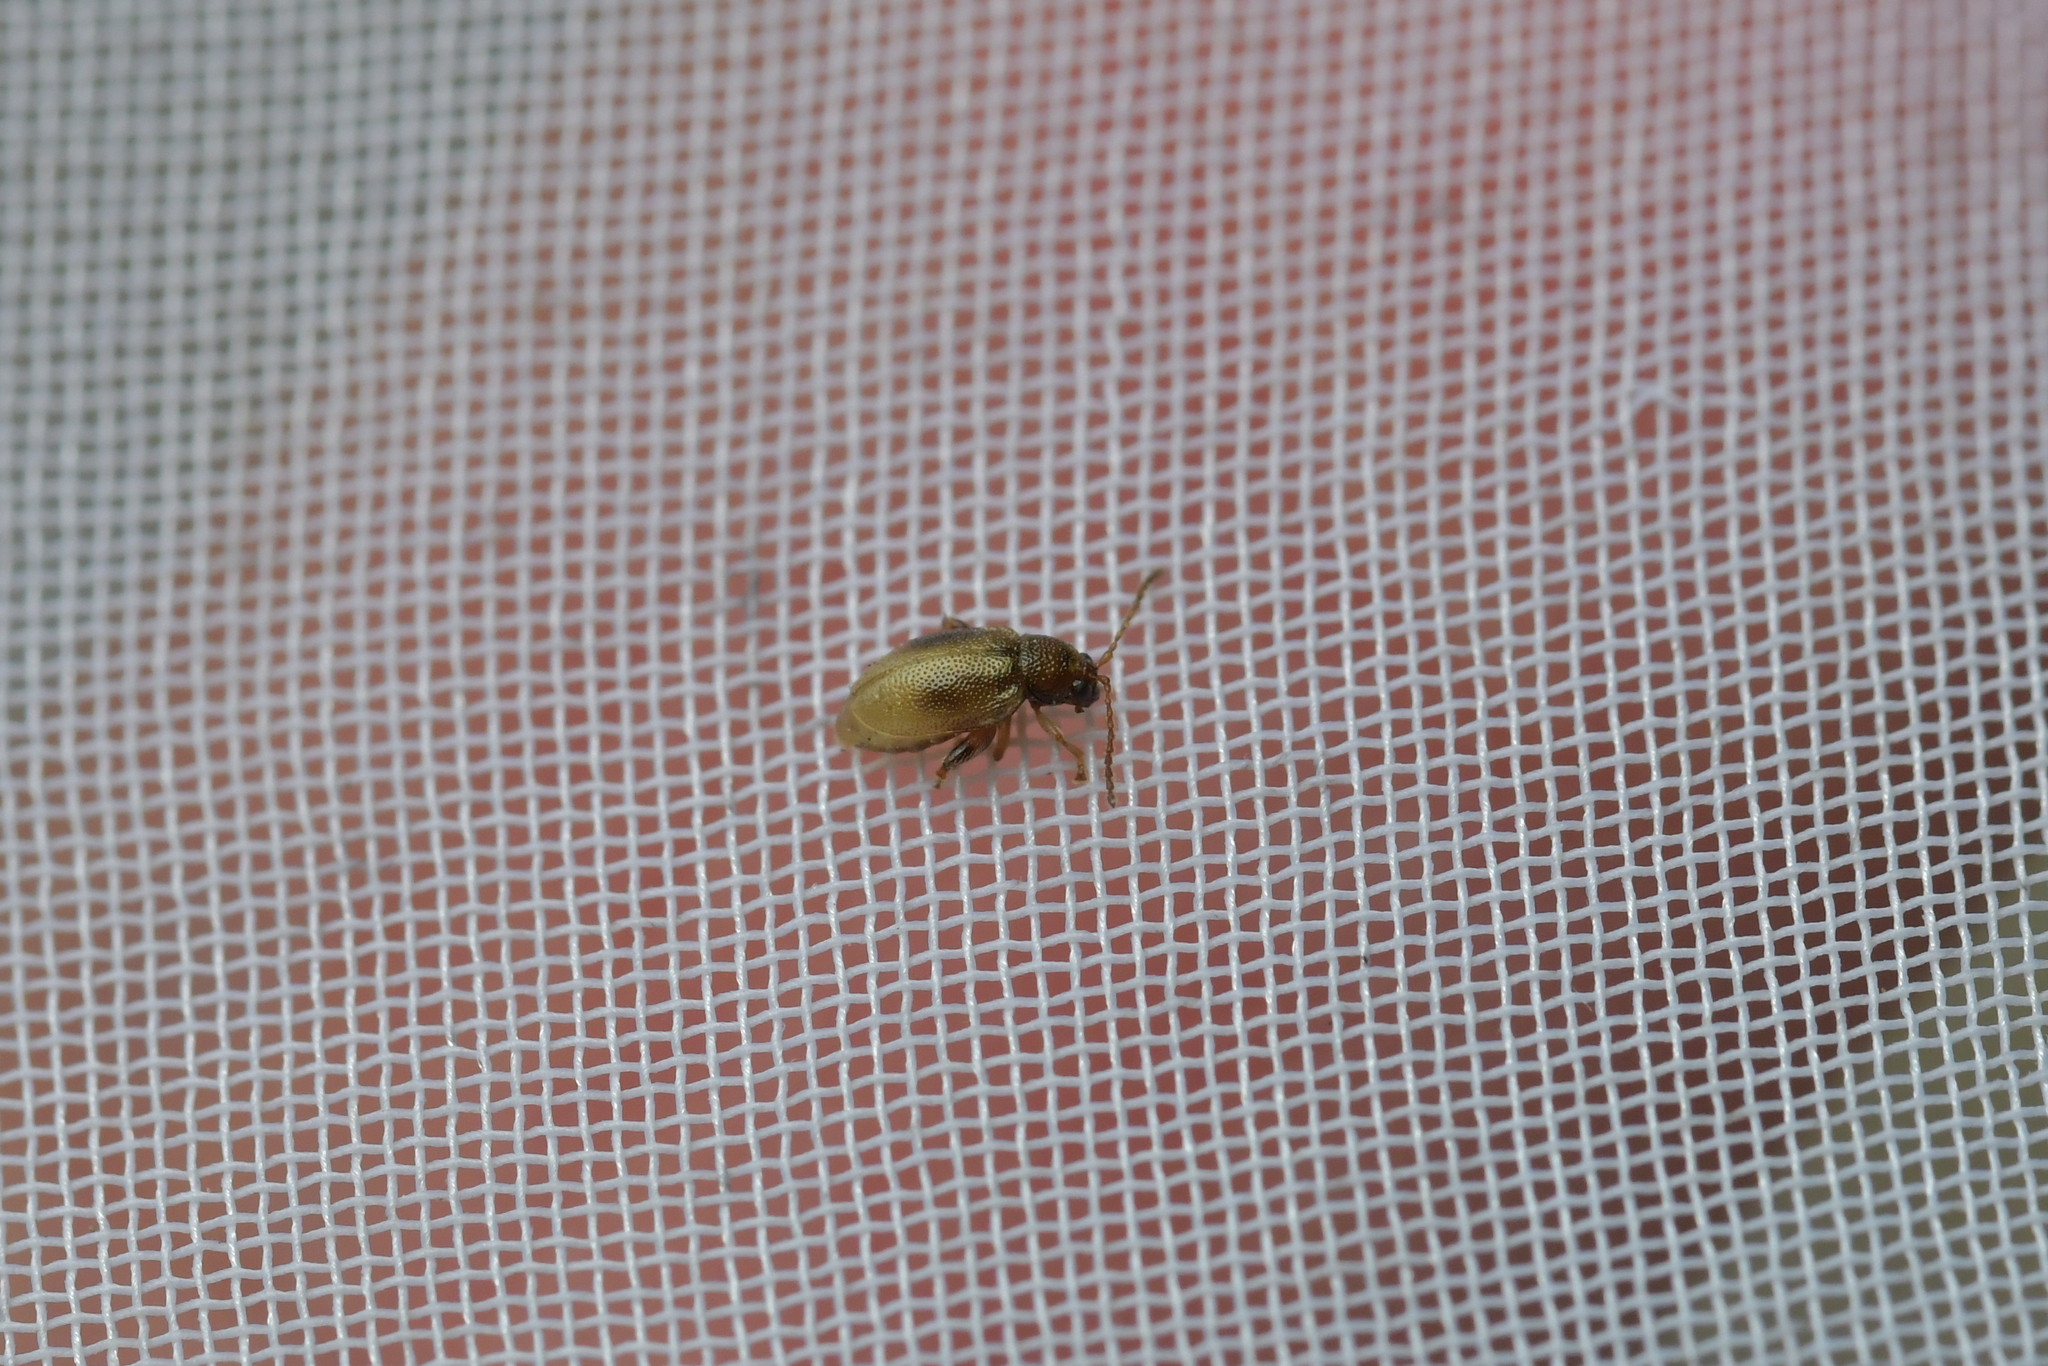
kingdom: Animalia
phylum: Arthropoda
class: Insecta
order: Coleoptera
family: Chrysomelidae
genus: Trachytetra
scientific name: Trachytetra
